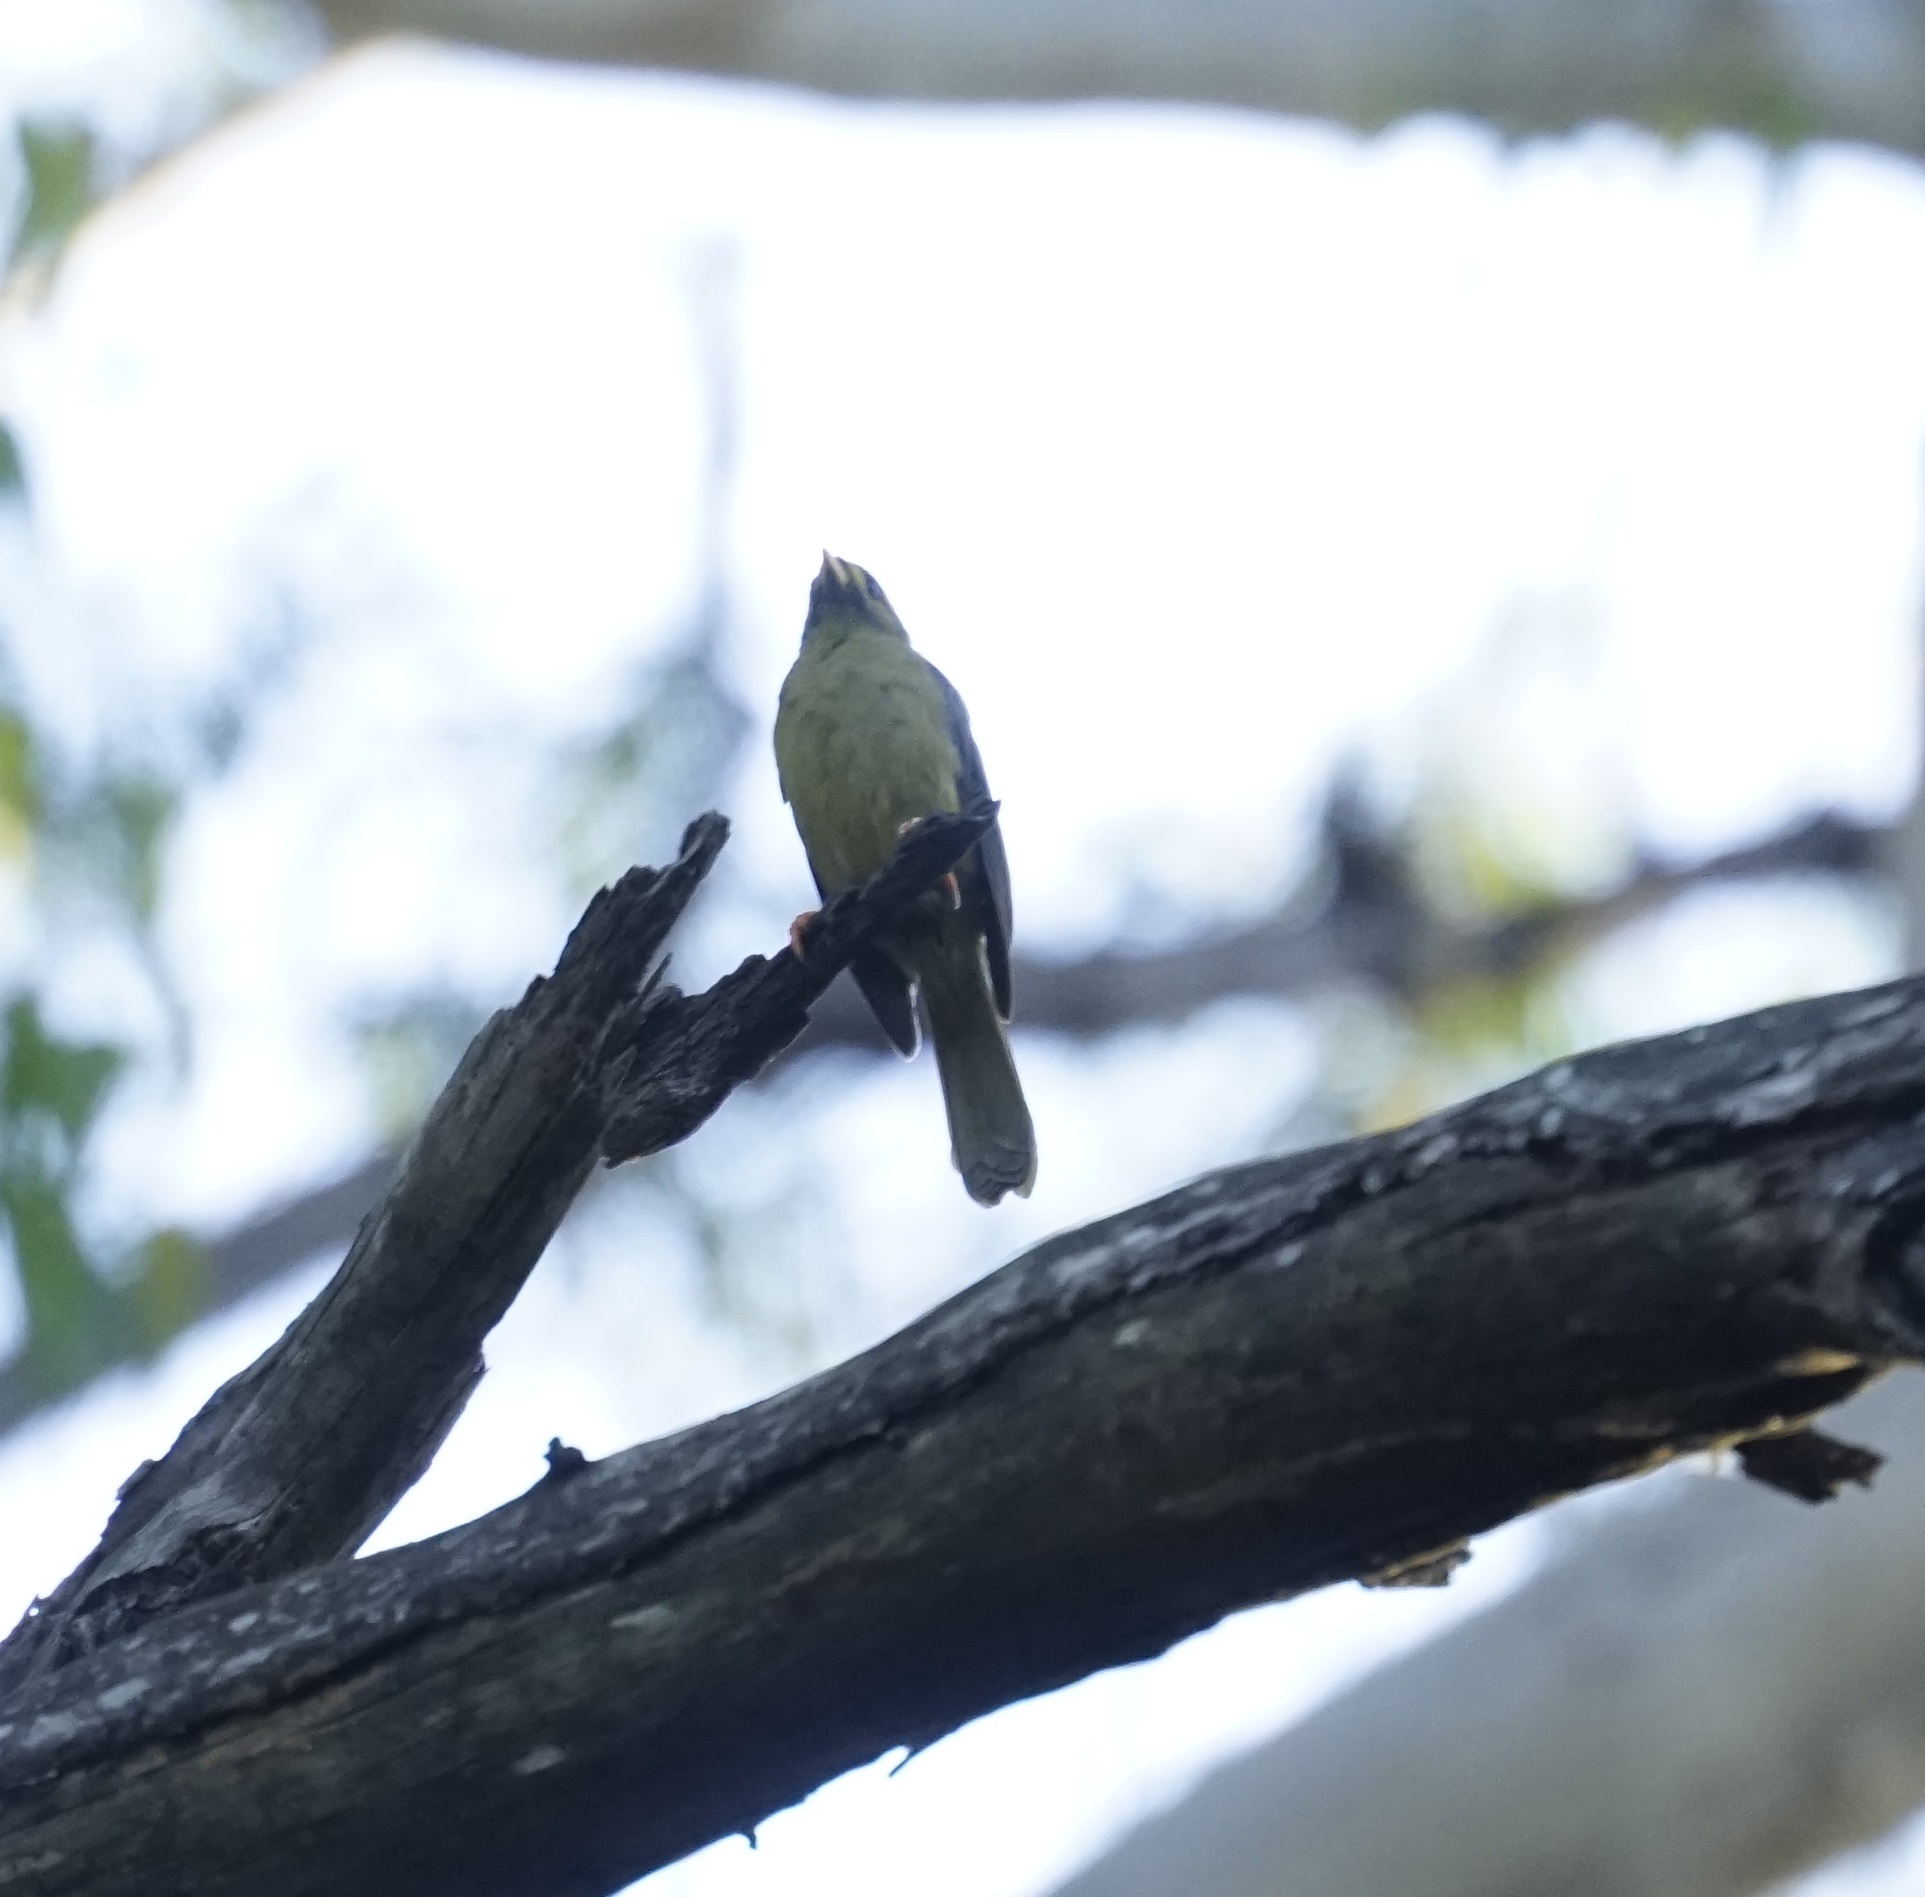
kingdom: Animalia
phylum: Chordata
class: Aves
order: Passeriformes
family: Meliphagidae
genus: Manorina
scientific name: Manorina melanophrys
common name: Bell miner
